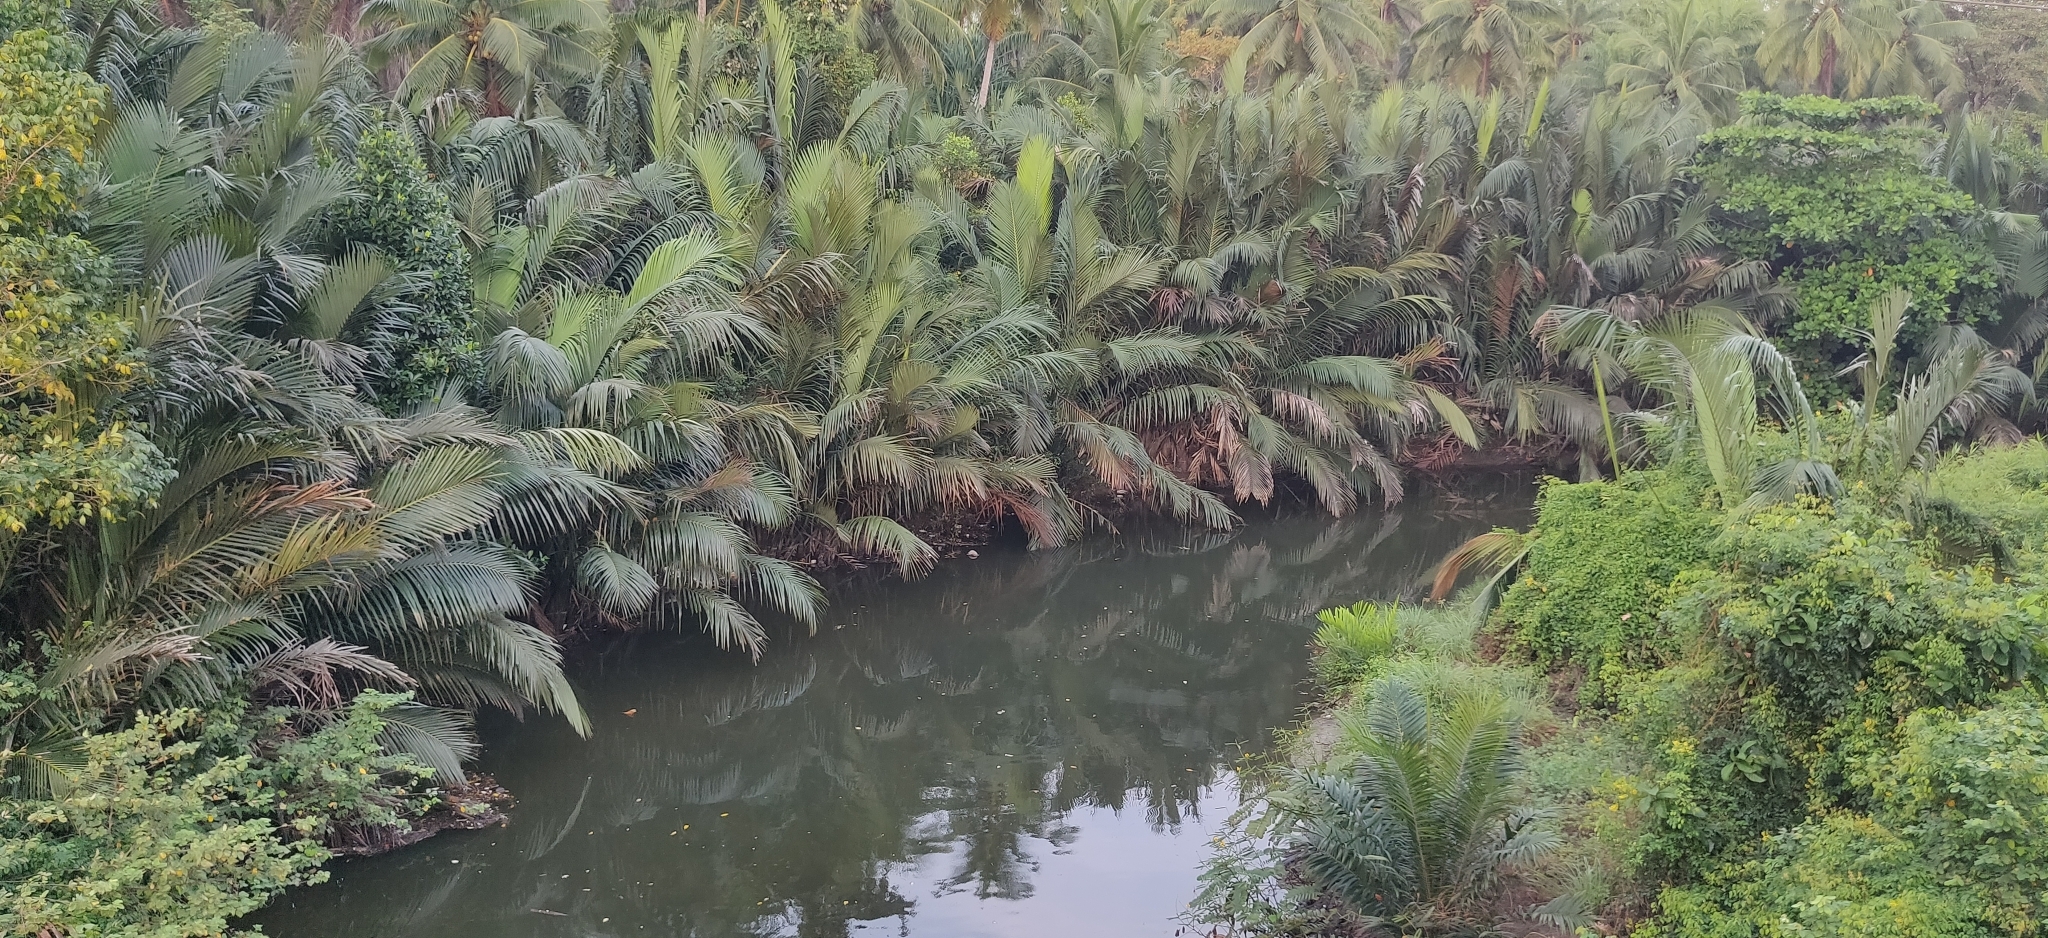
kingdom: Plantae
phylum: Tracheophyta
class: Liliopsida
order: Arecales
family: Arecaceae
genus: Nypa
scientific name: Nypa fruticans
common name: Mangrove palm
